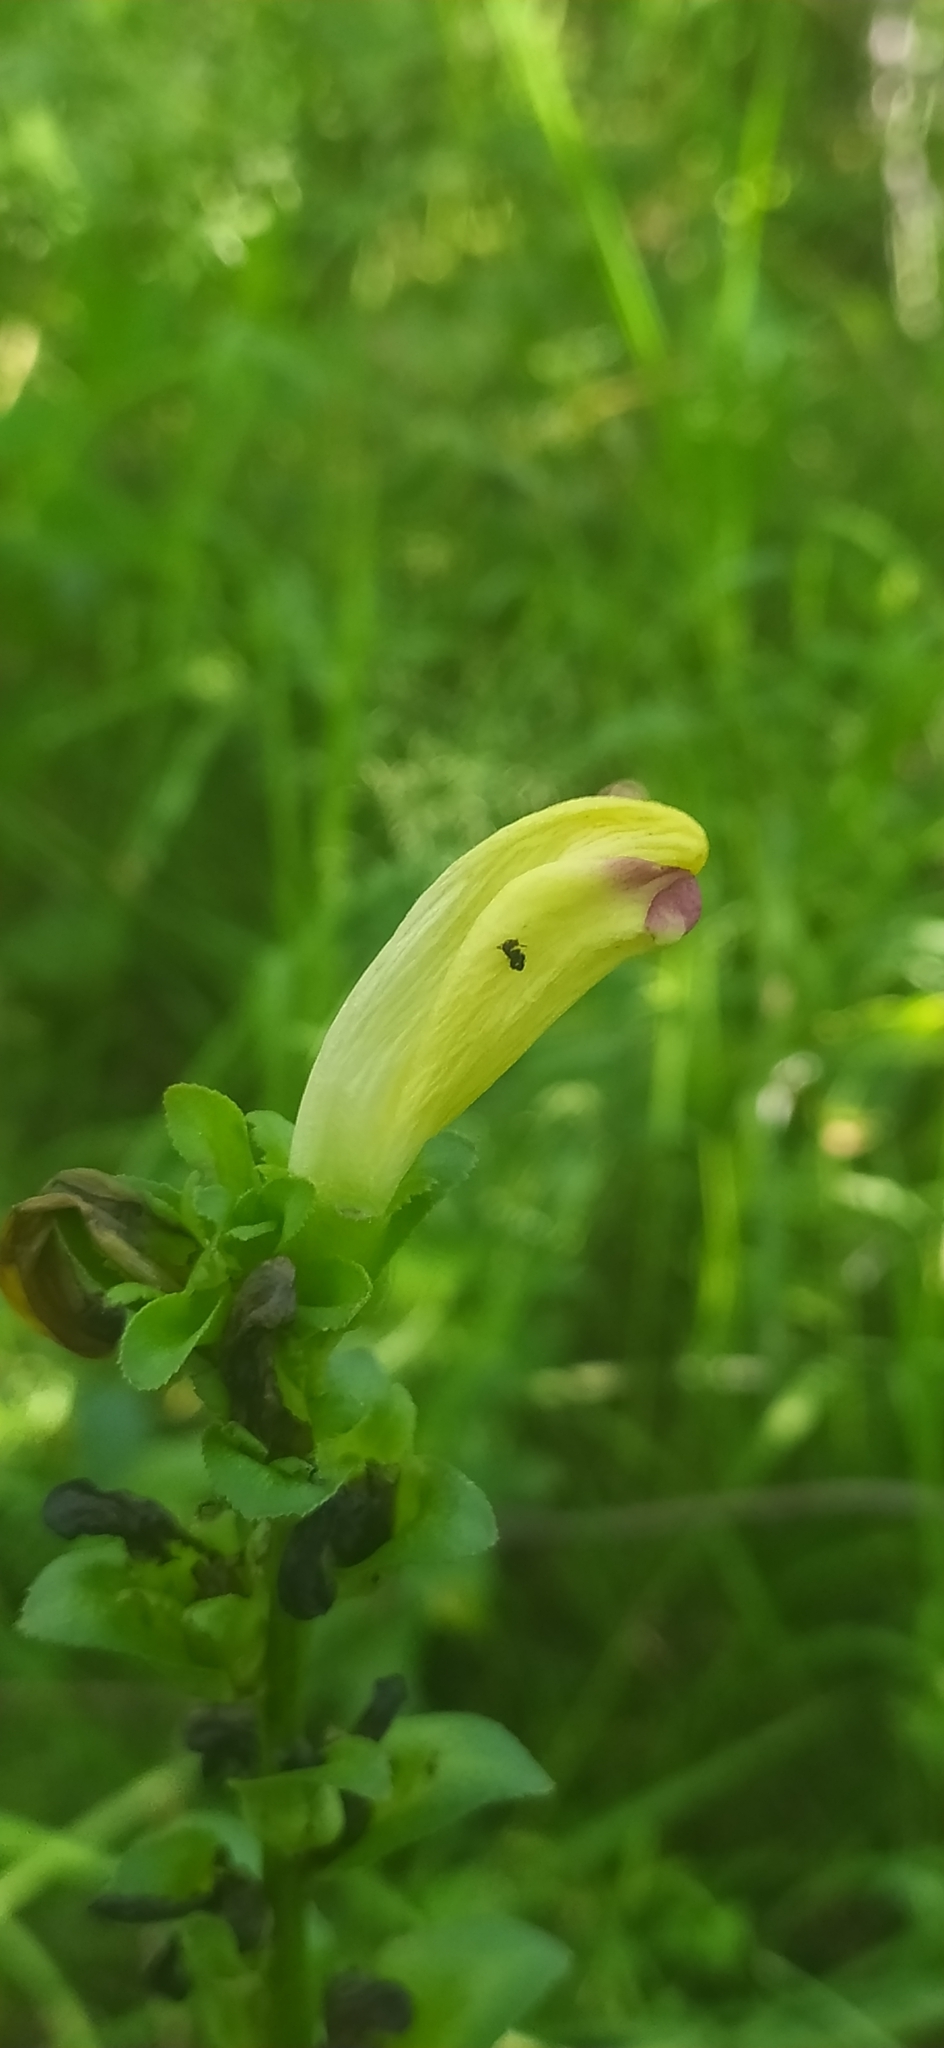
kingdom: Plantae
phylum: Tracheophyta
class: Magnoliopsida
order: Lamiales
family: Orobanchaceae
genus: Pedicularis
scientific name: Pedicularis sceptrum-carolinum
